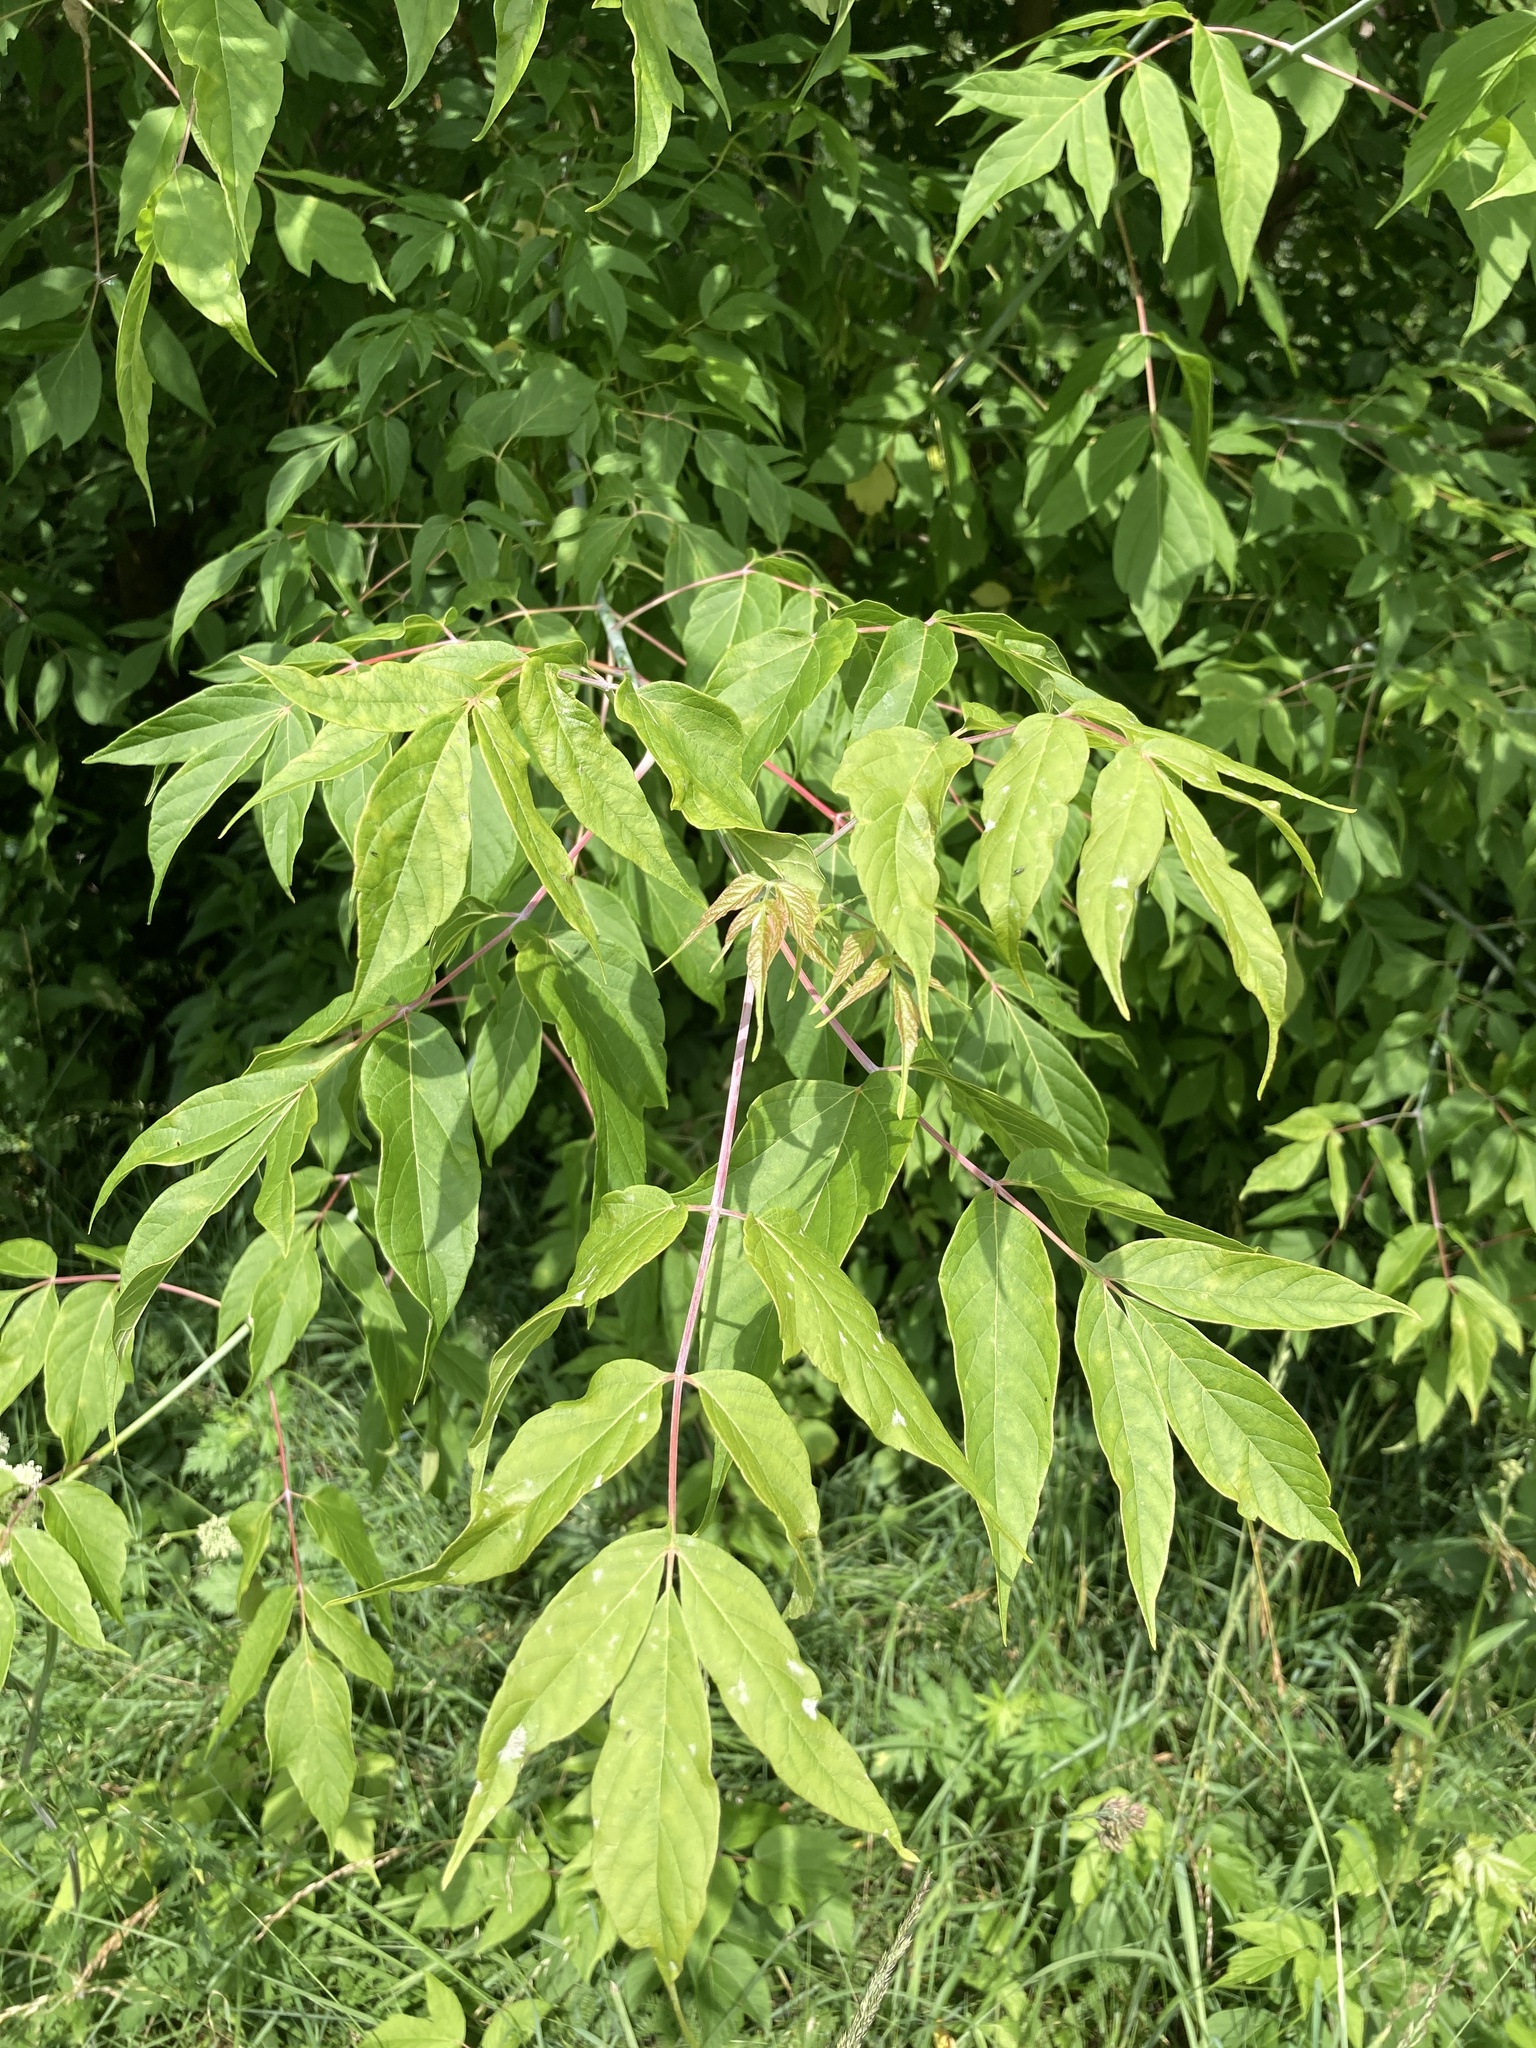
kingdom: Plantae
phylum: Tracheophyta
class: Magnoliopsida
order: Sapindales
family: Sapindaceae
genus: Acer
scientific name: Acer negundo
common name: Ashleaf maple
